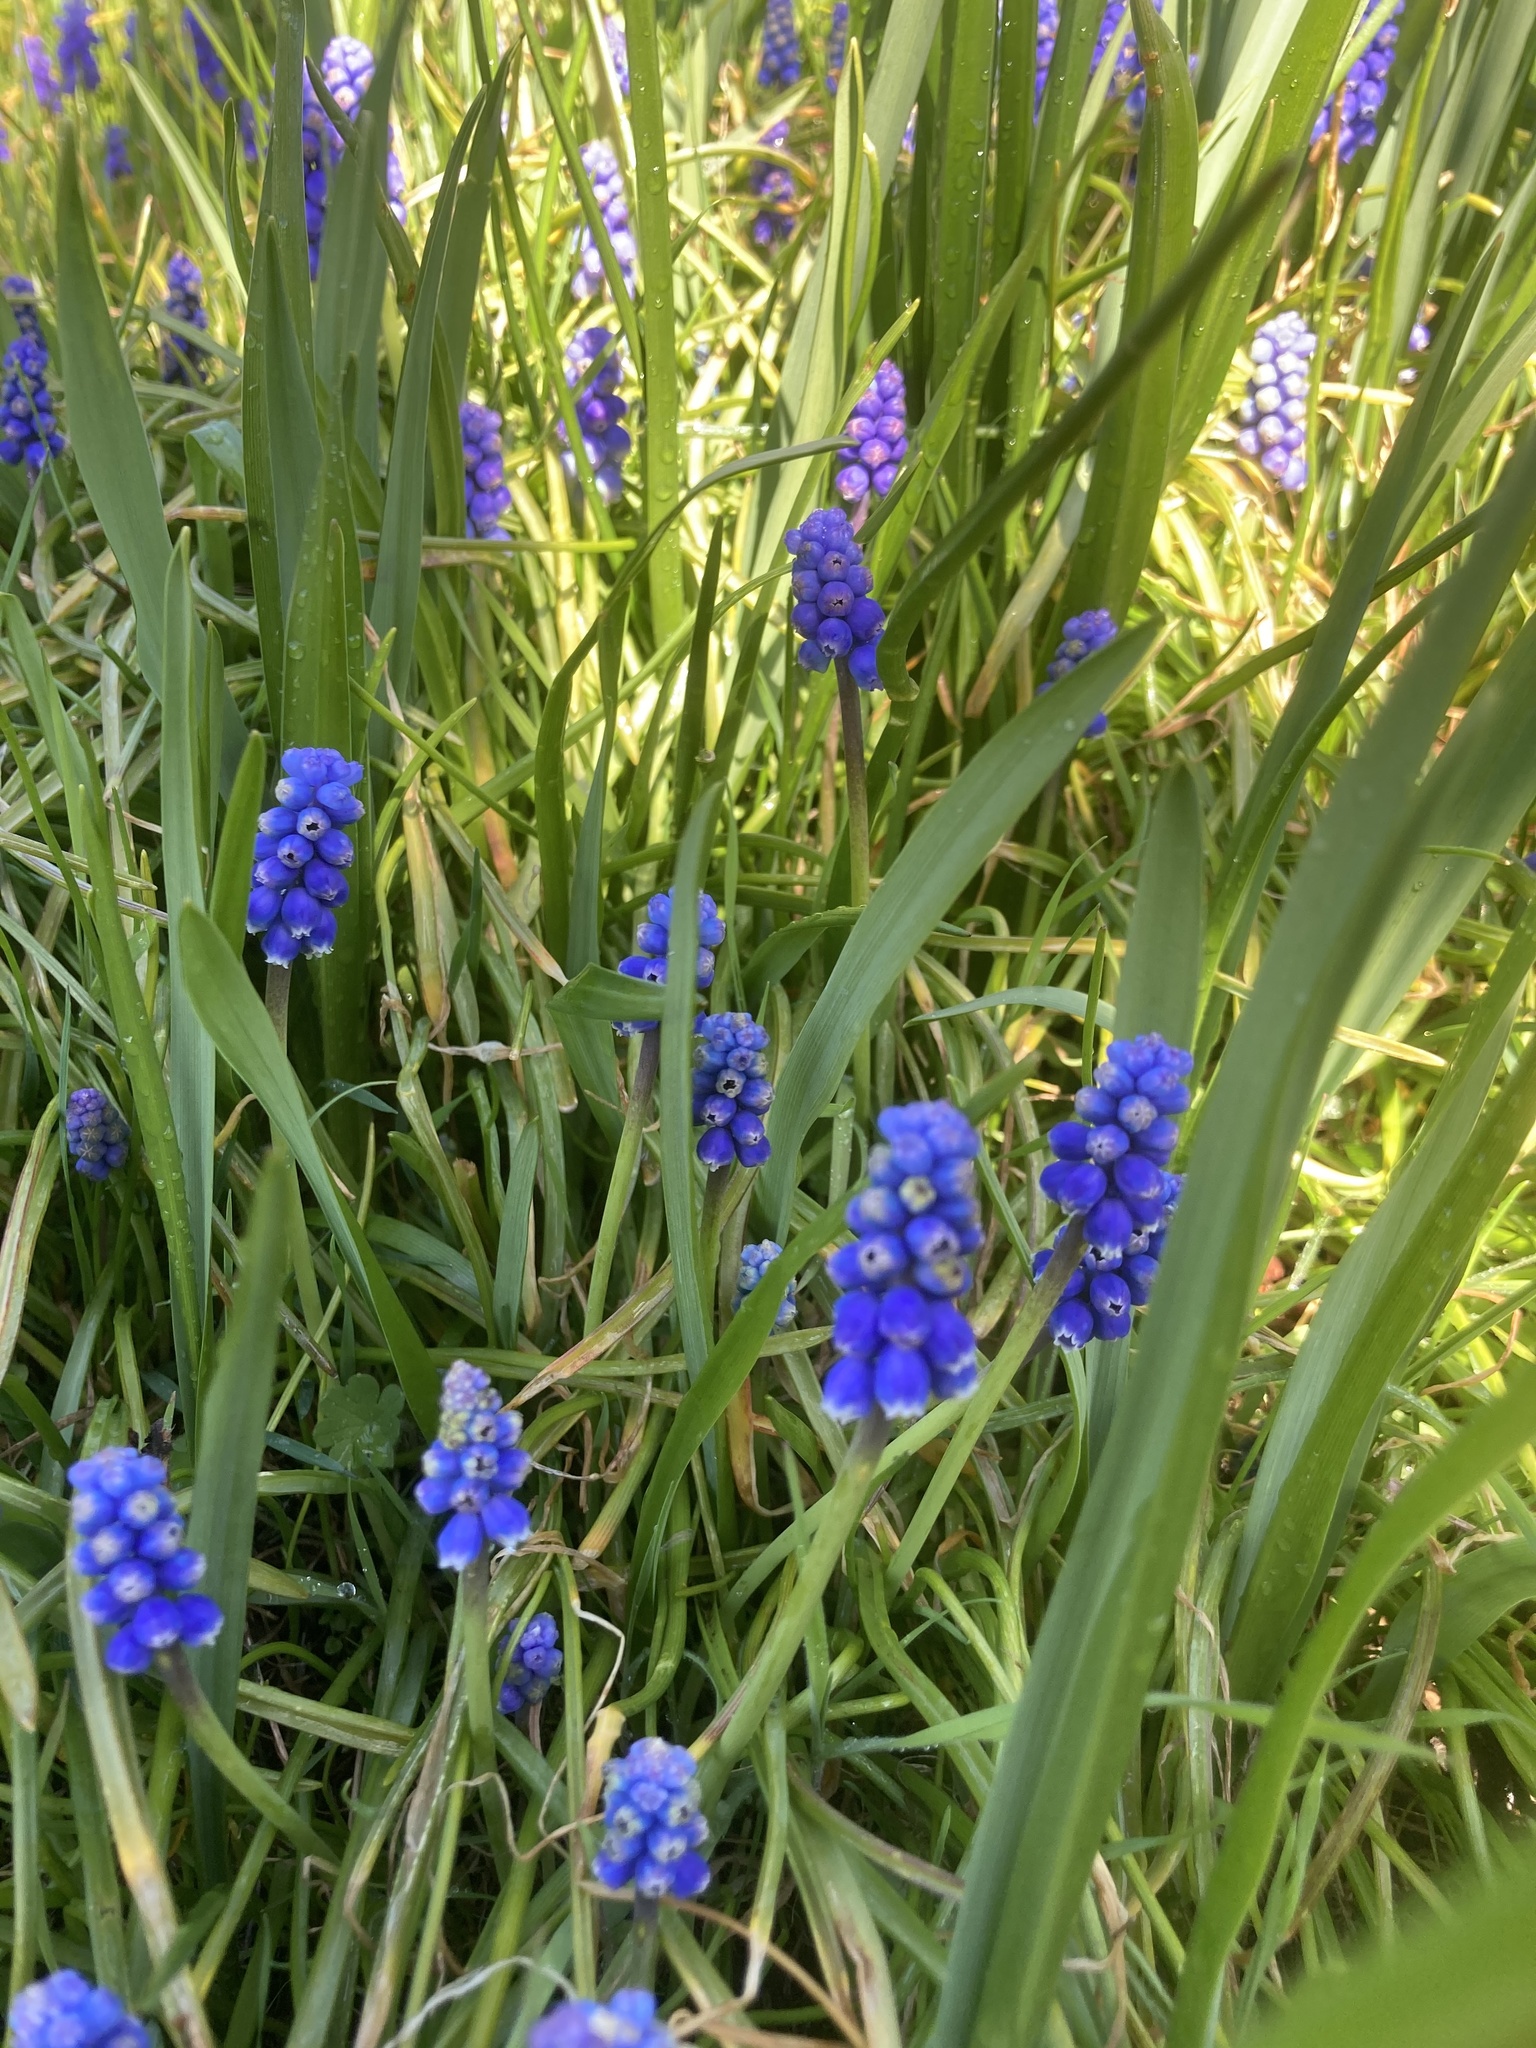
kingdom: Plantae
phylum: Tracheophyta
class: Liliopsida
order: Asparagales
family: Asparagaceae
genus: Muscari
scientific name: Muscari armeniacum
